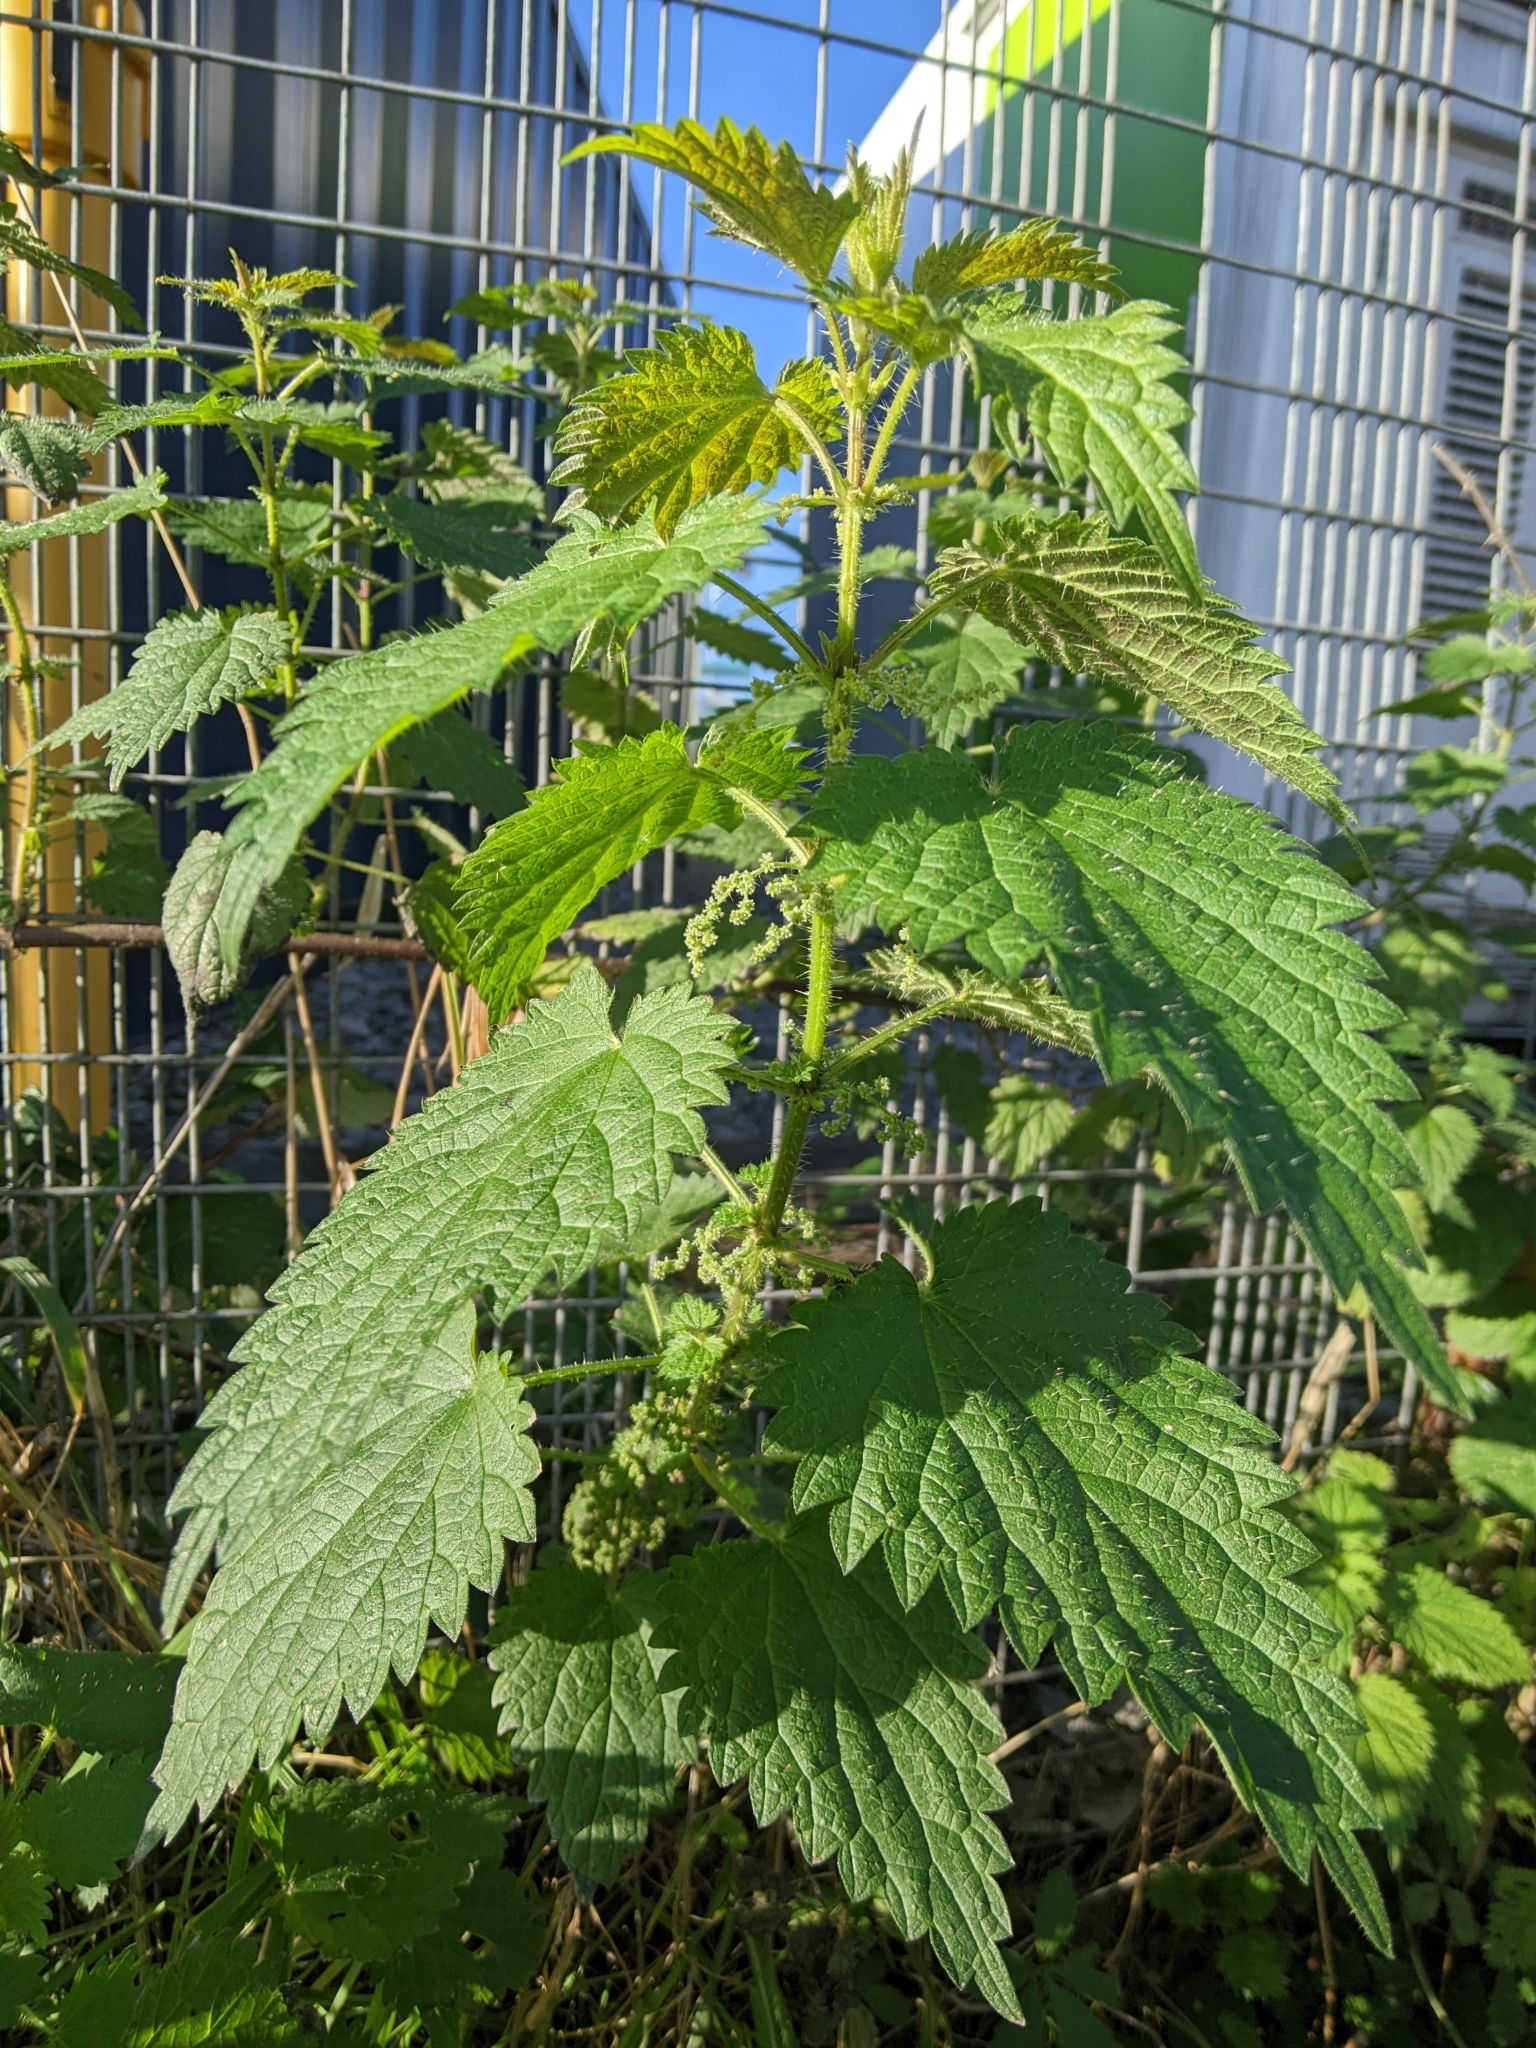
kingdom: Plantae
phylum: Tracheophyta
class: Magnoliopsida
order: Rosales
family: Urticaceae
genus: Urtica
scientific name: Urtica dioica
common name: Common nettle
